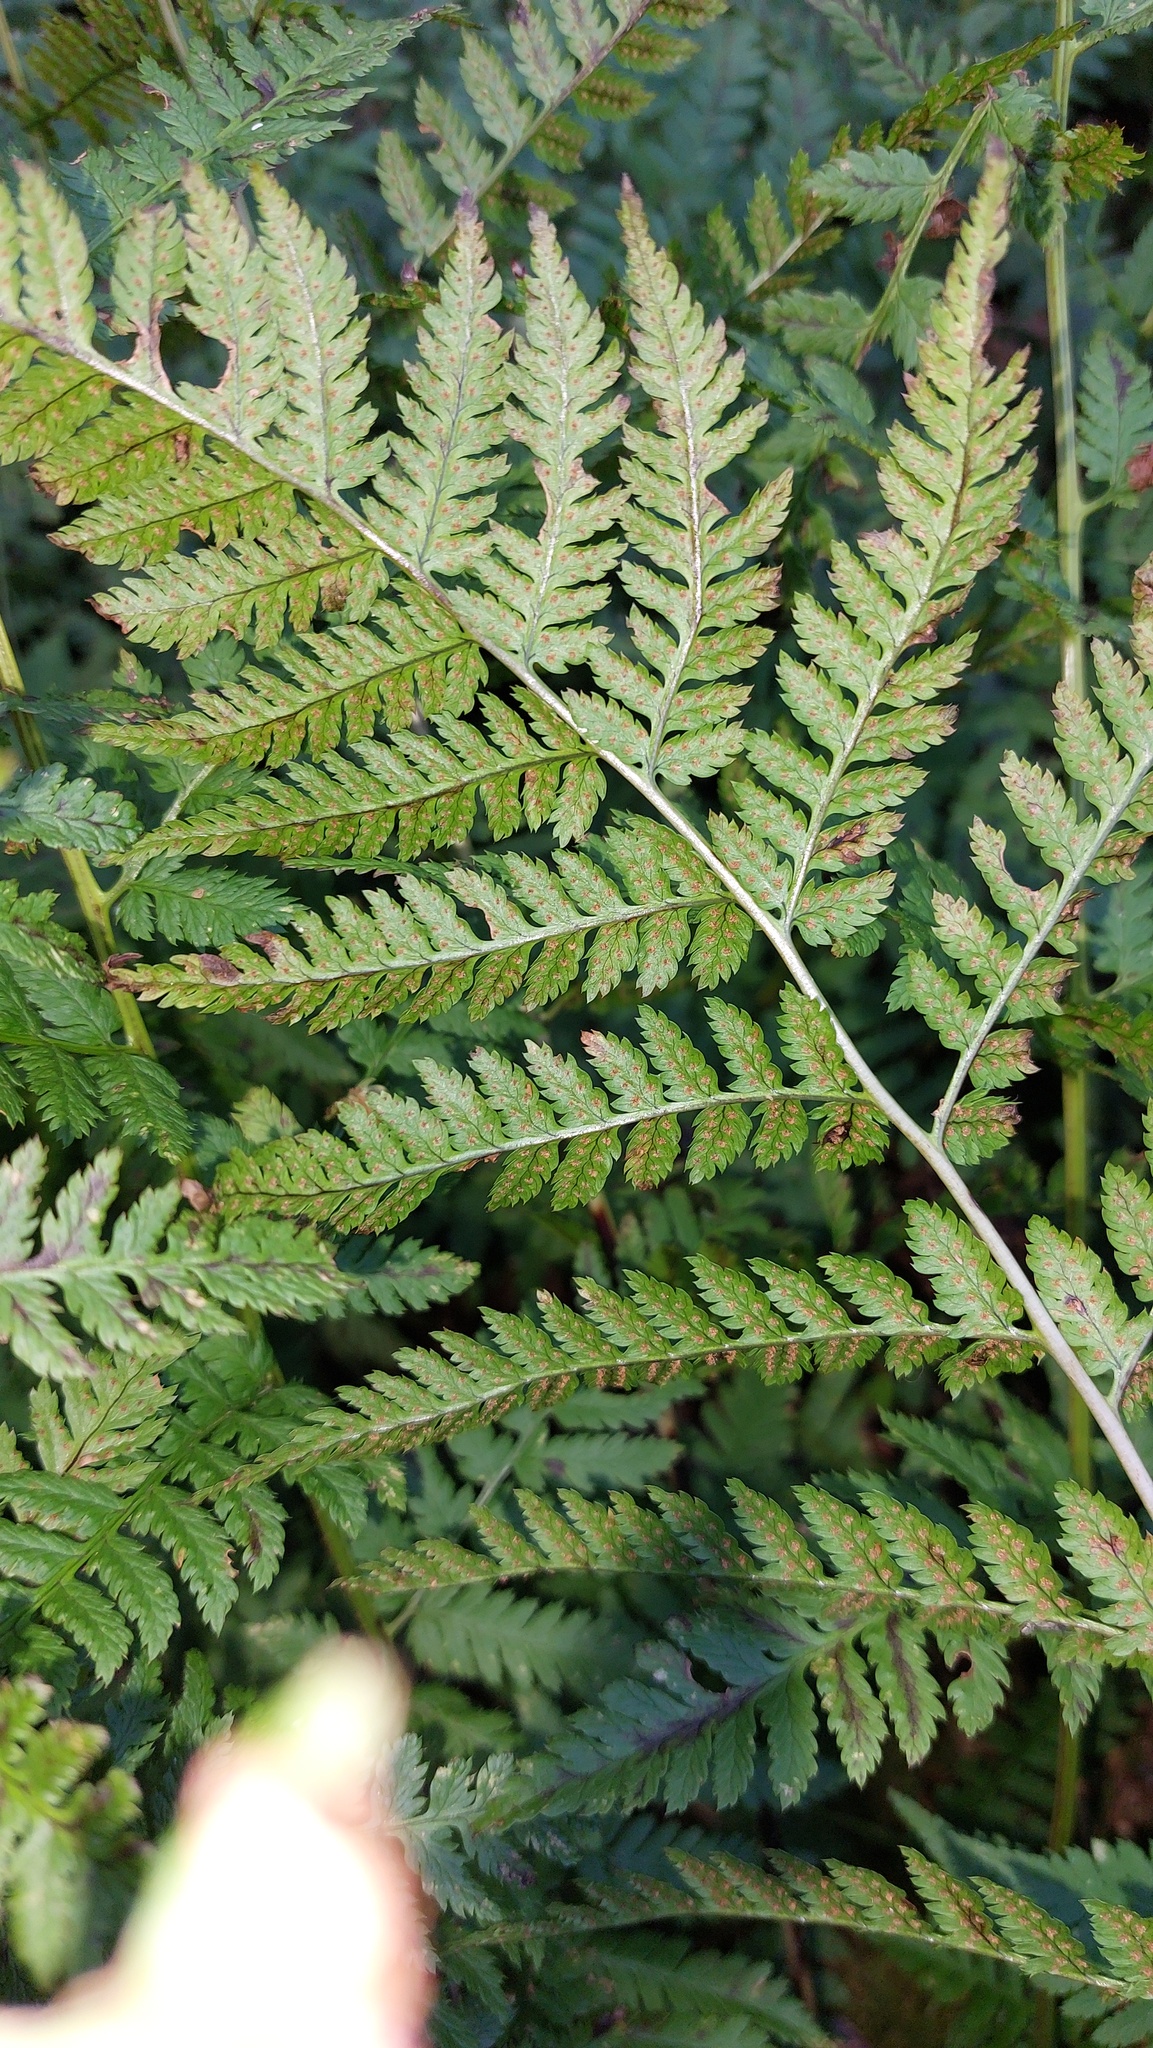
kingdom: Plantae
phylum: Tracheophyta
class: Polypodiopsida
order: Polypodiales
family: Dryopteridaceae
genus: Dryopteris
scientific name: Dryopteris carthusiana
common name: Narrow buckler-fern
